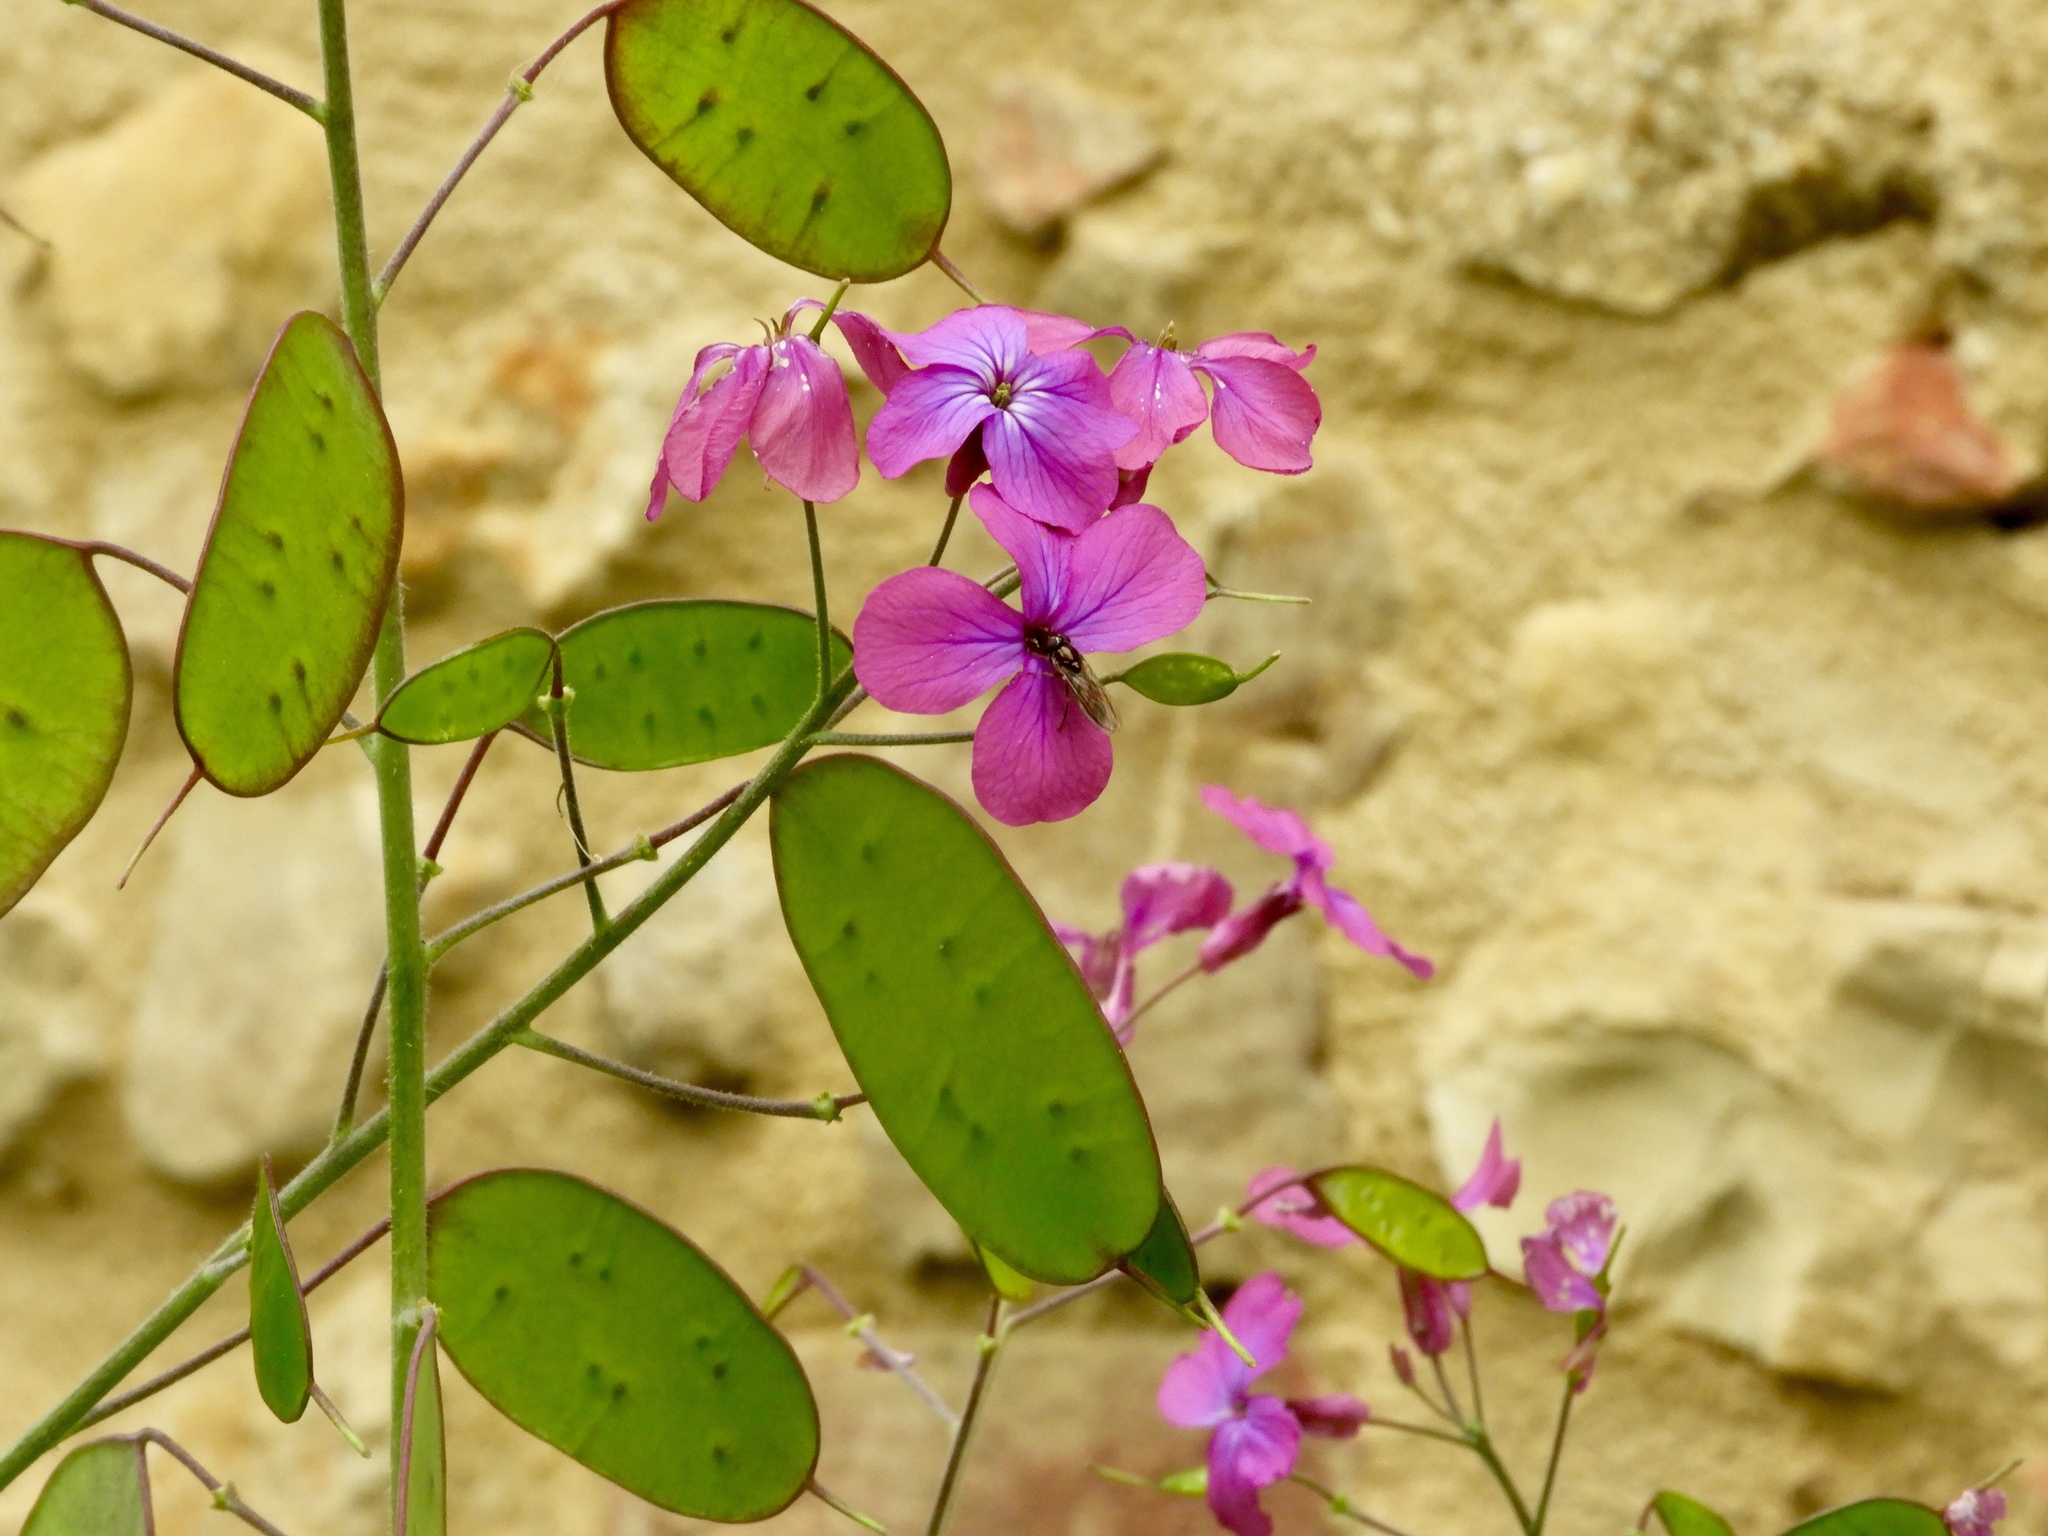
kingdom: Plantae
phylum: Tracheophyta
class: Magnoliopsida
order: Brassicales
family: Brassicaceae
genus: Lunaria
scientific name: Lunaria annua
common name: Honesty
